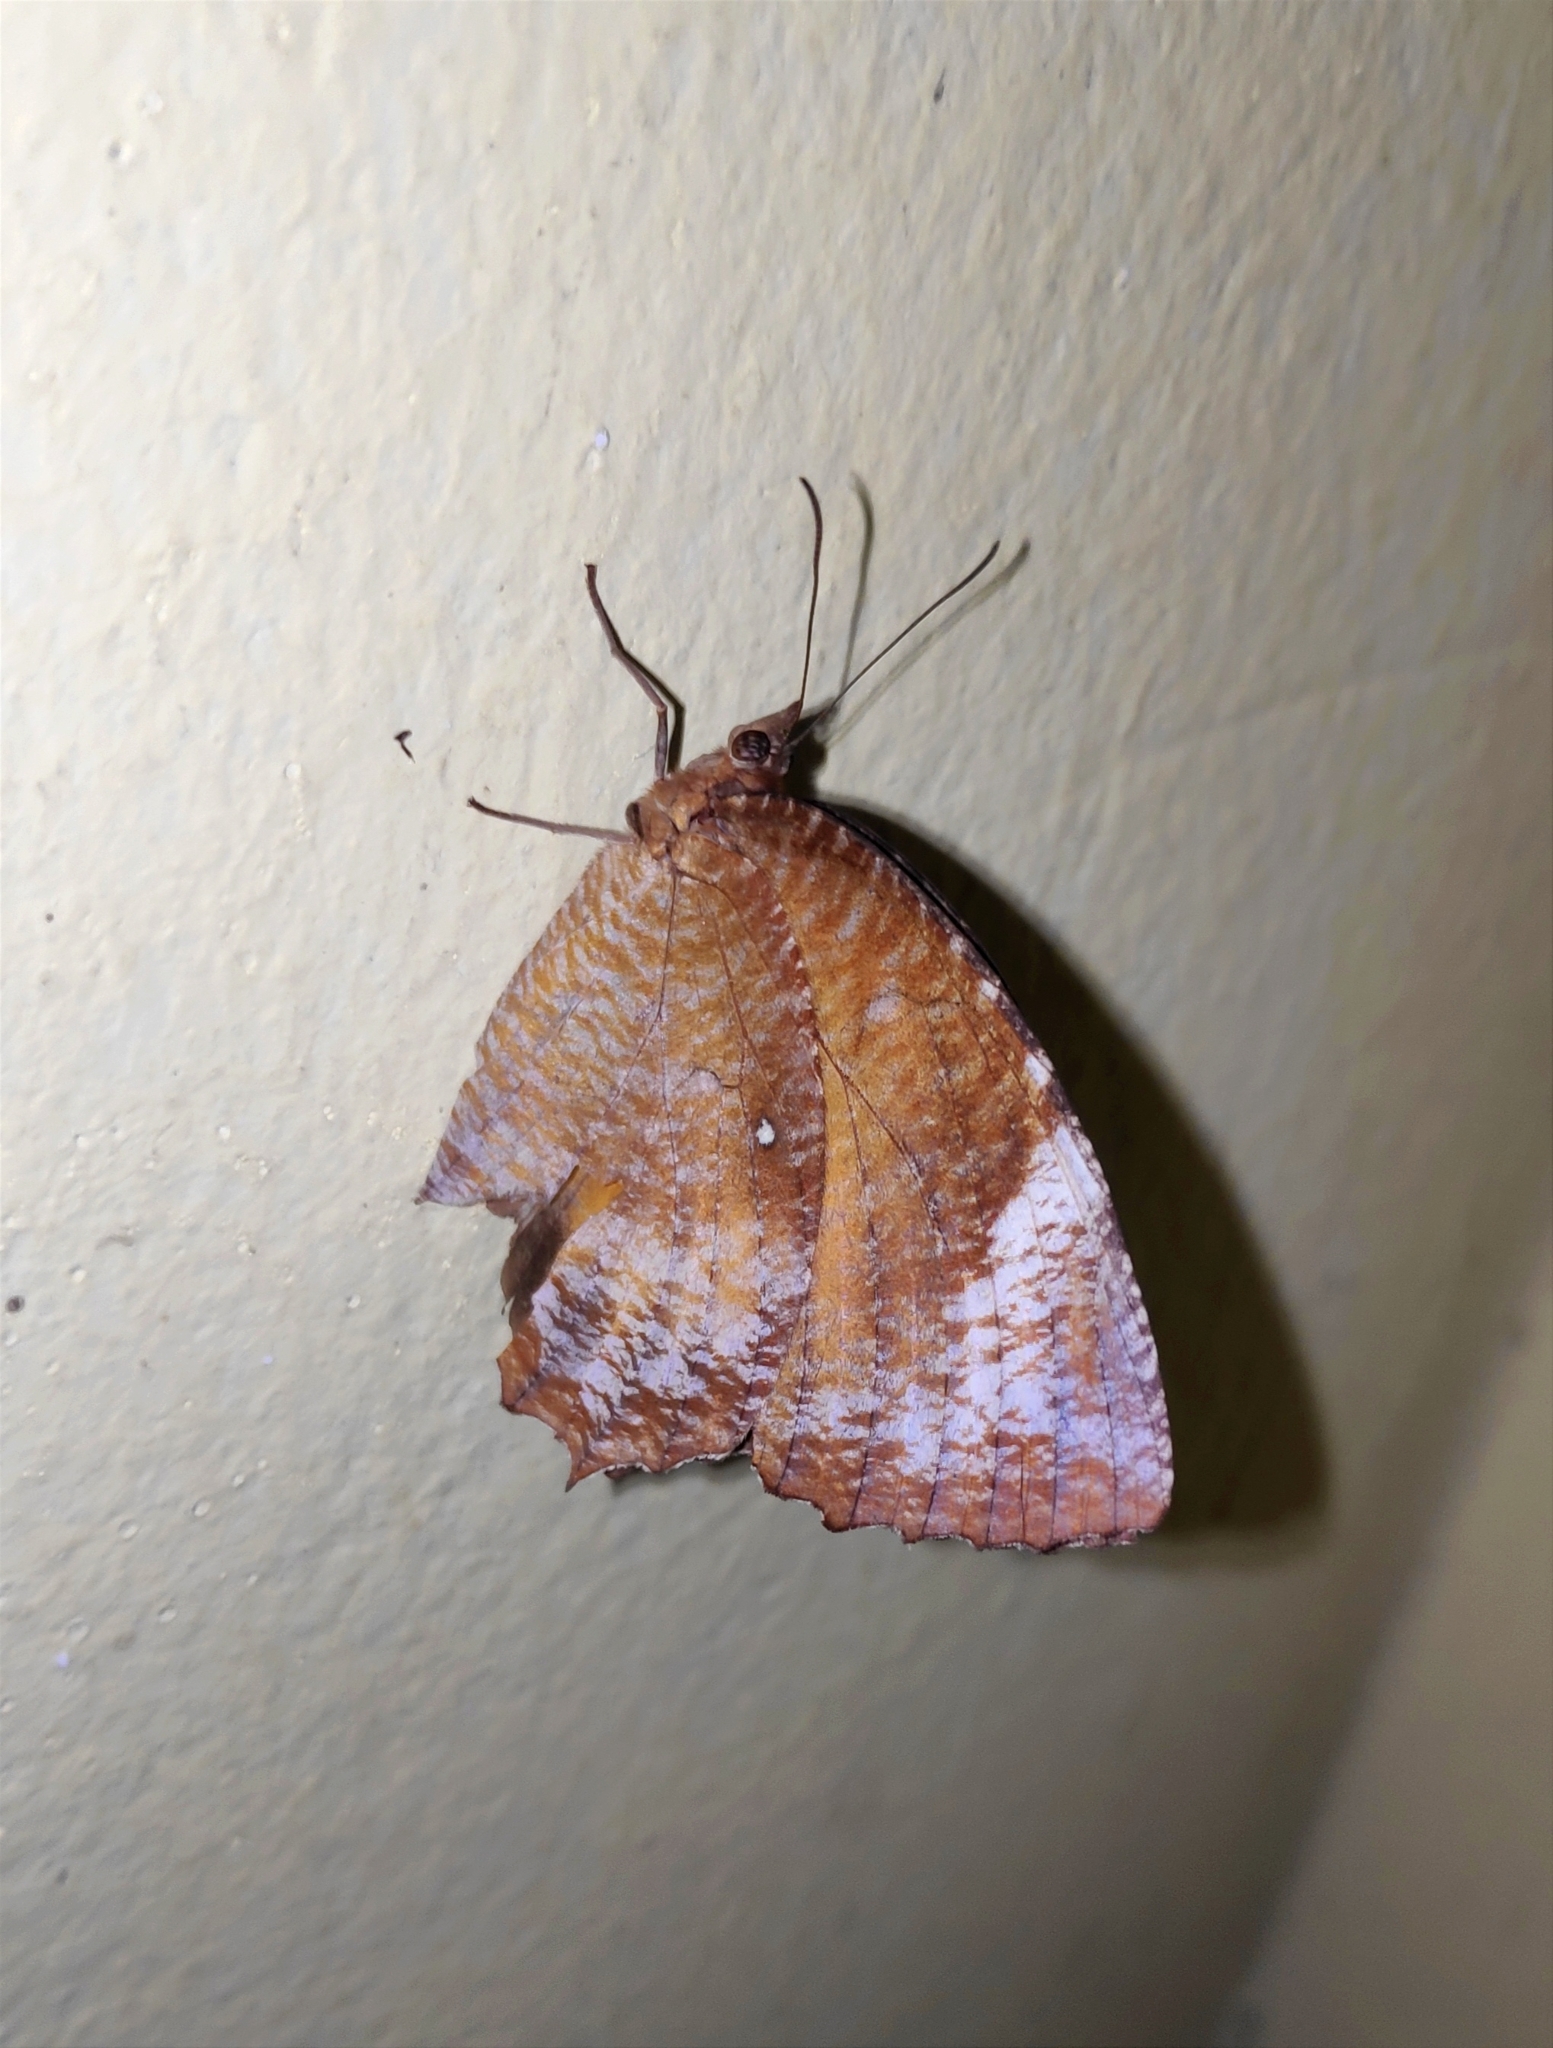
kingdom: Animalia
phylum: Arthropoda
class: Insecta
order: Lepidoptera
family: Nymphalidae
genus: Elymnias
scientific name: Elymnias hypermnestra
